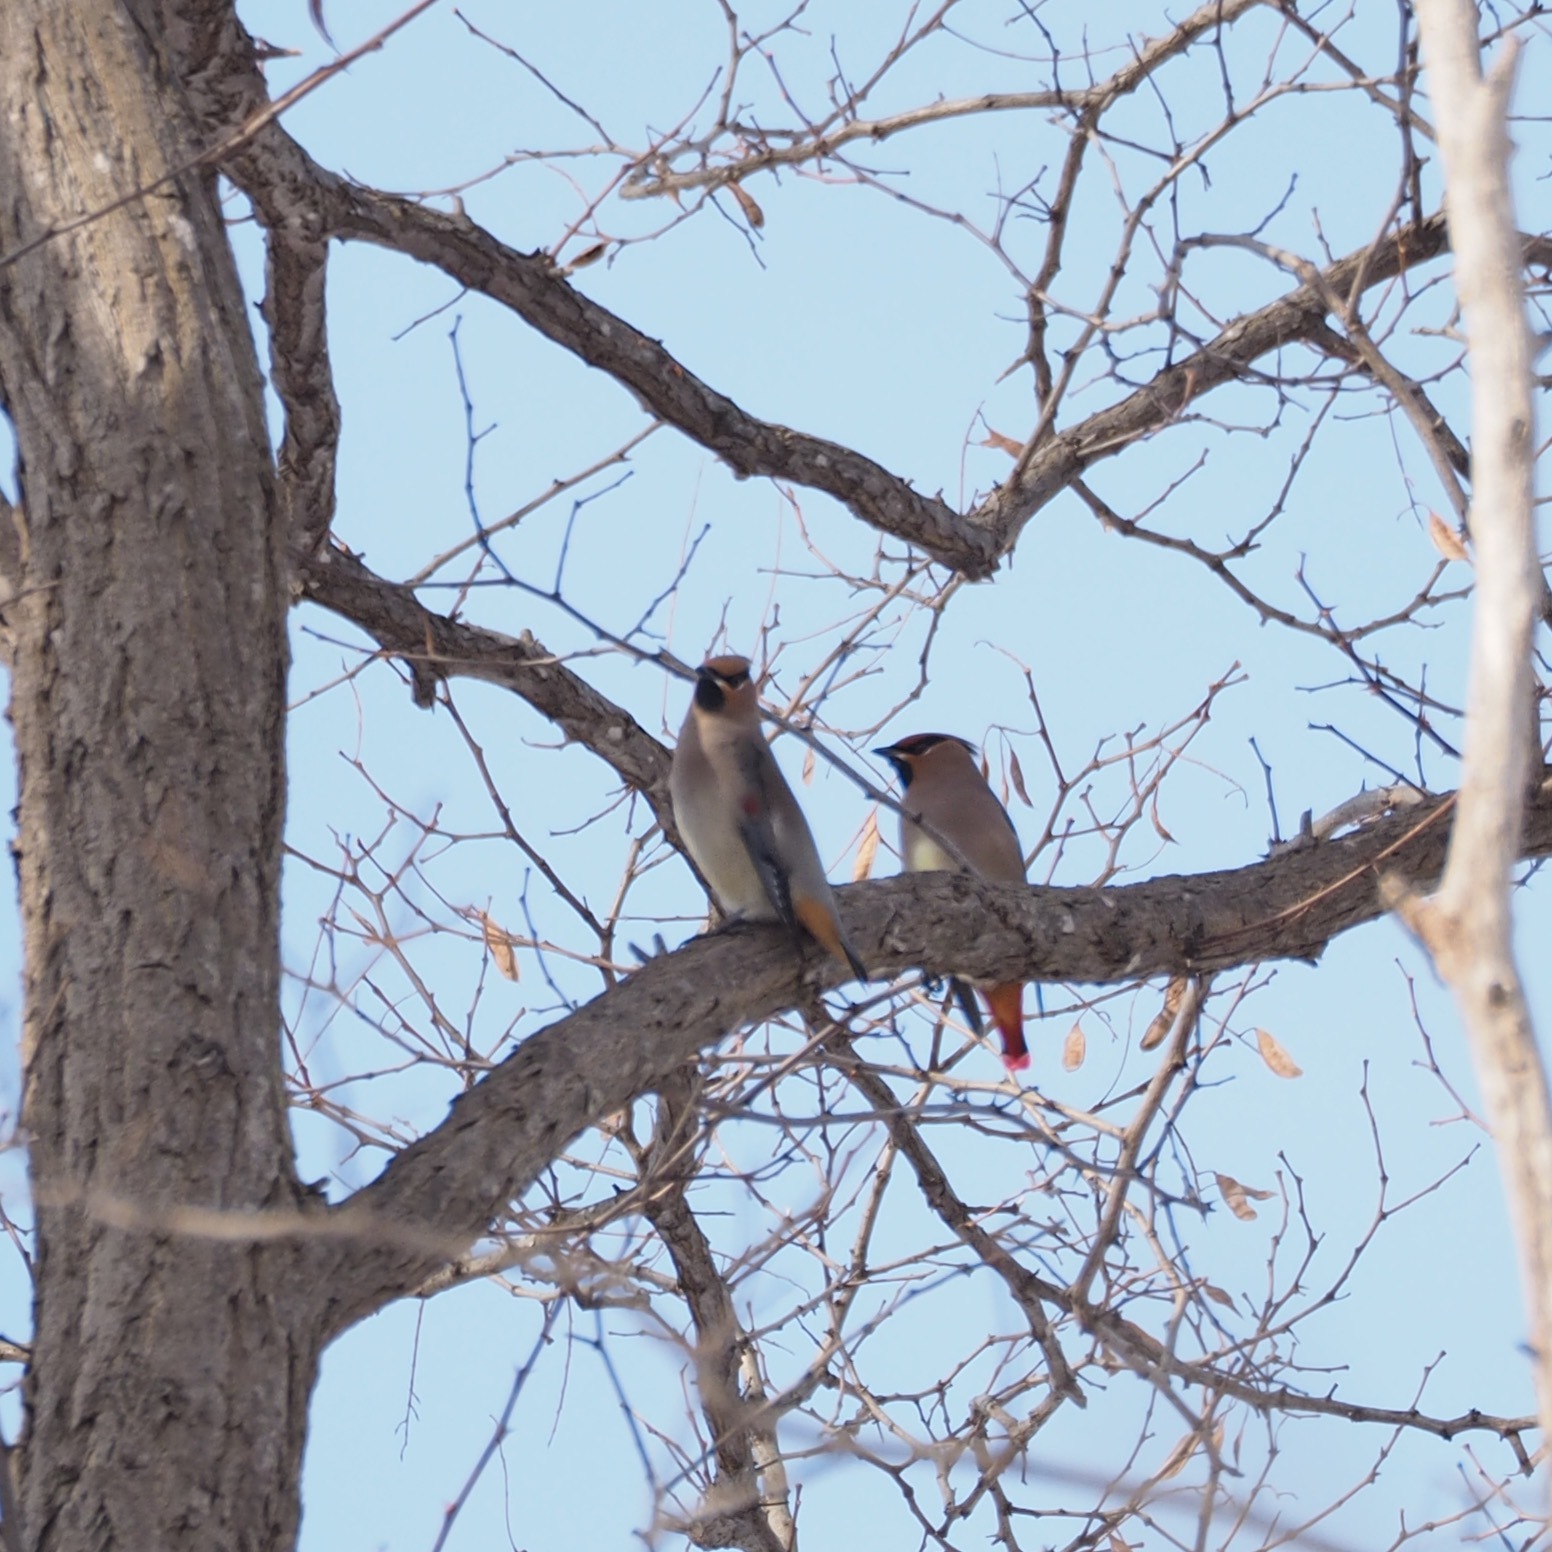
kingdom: Animalia
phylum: Chordata
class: Aves
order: Passeriformes
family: Bombycillidae
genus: Bombycilla
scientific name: Bombycilla japonica
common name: Japanese waxwing
